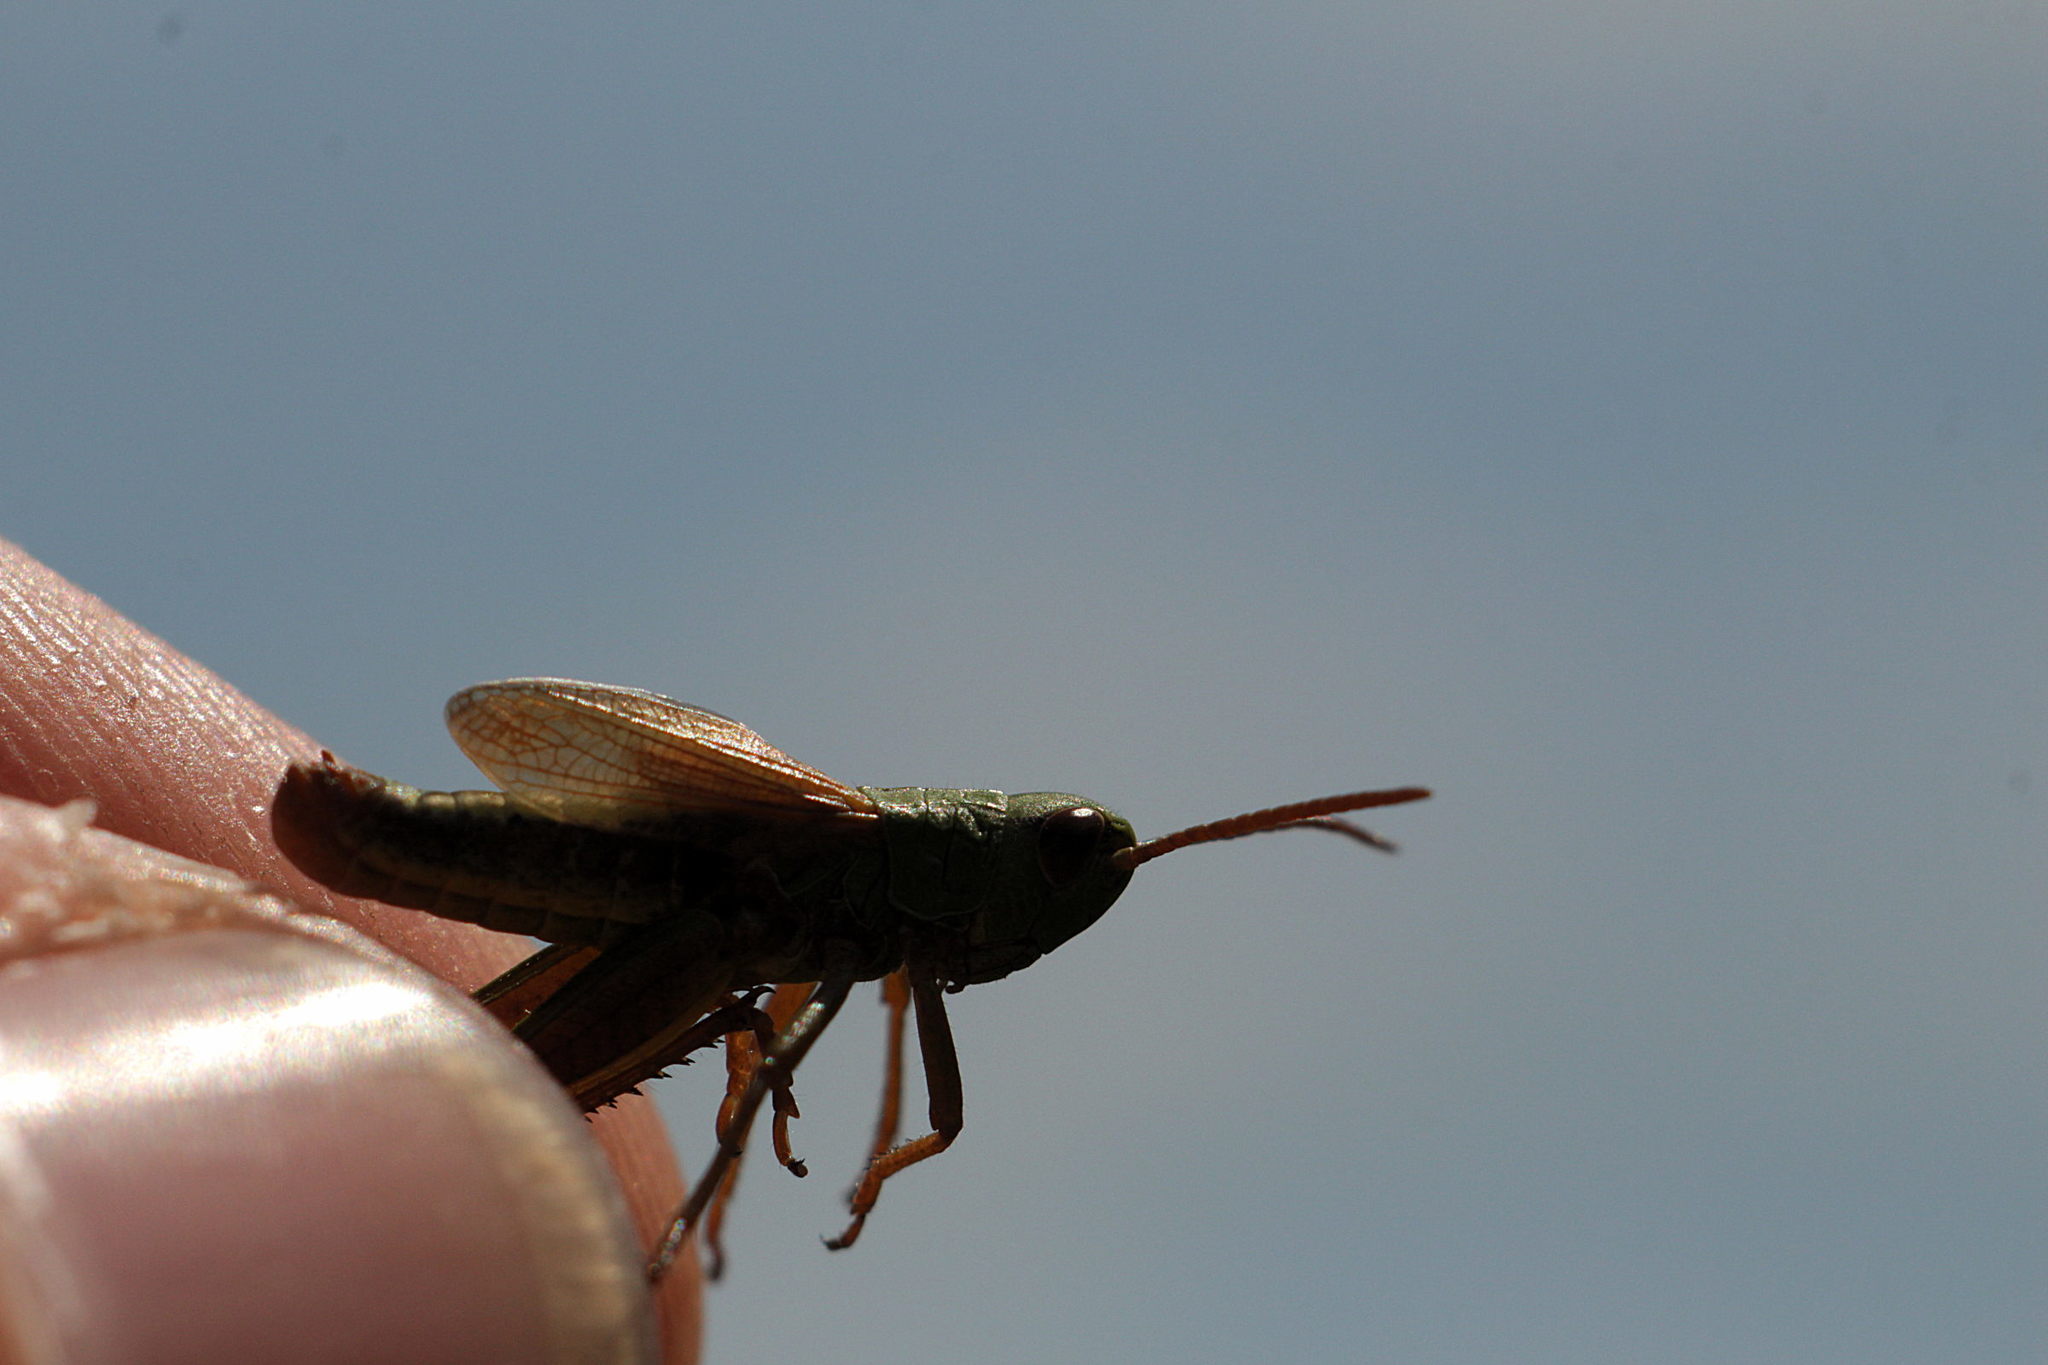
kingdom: Animalia
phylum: Arthropoda
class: Insecta
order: Orthoptera
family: Acrididae
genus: Pseudochorthippus
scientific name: Pseudochorthippus parallelus
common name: Meadow grasshopper
